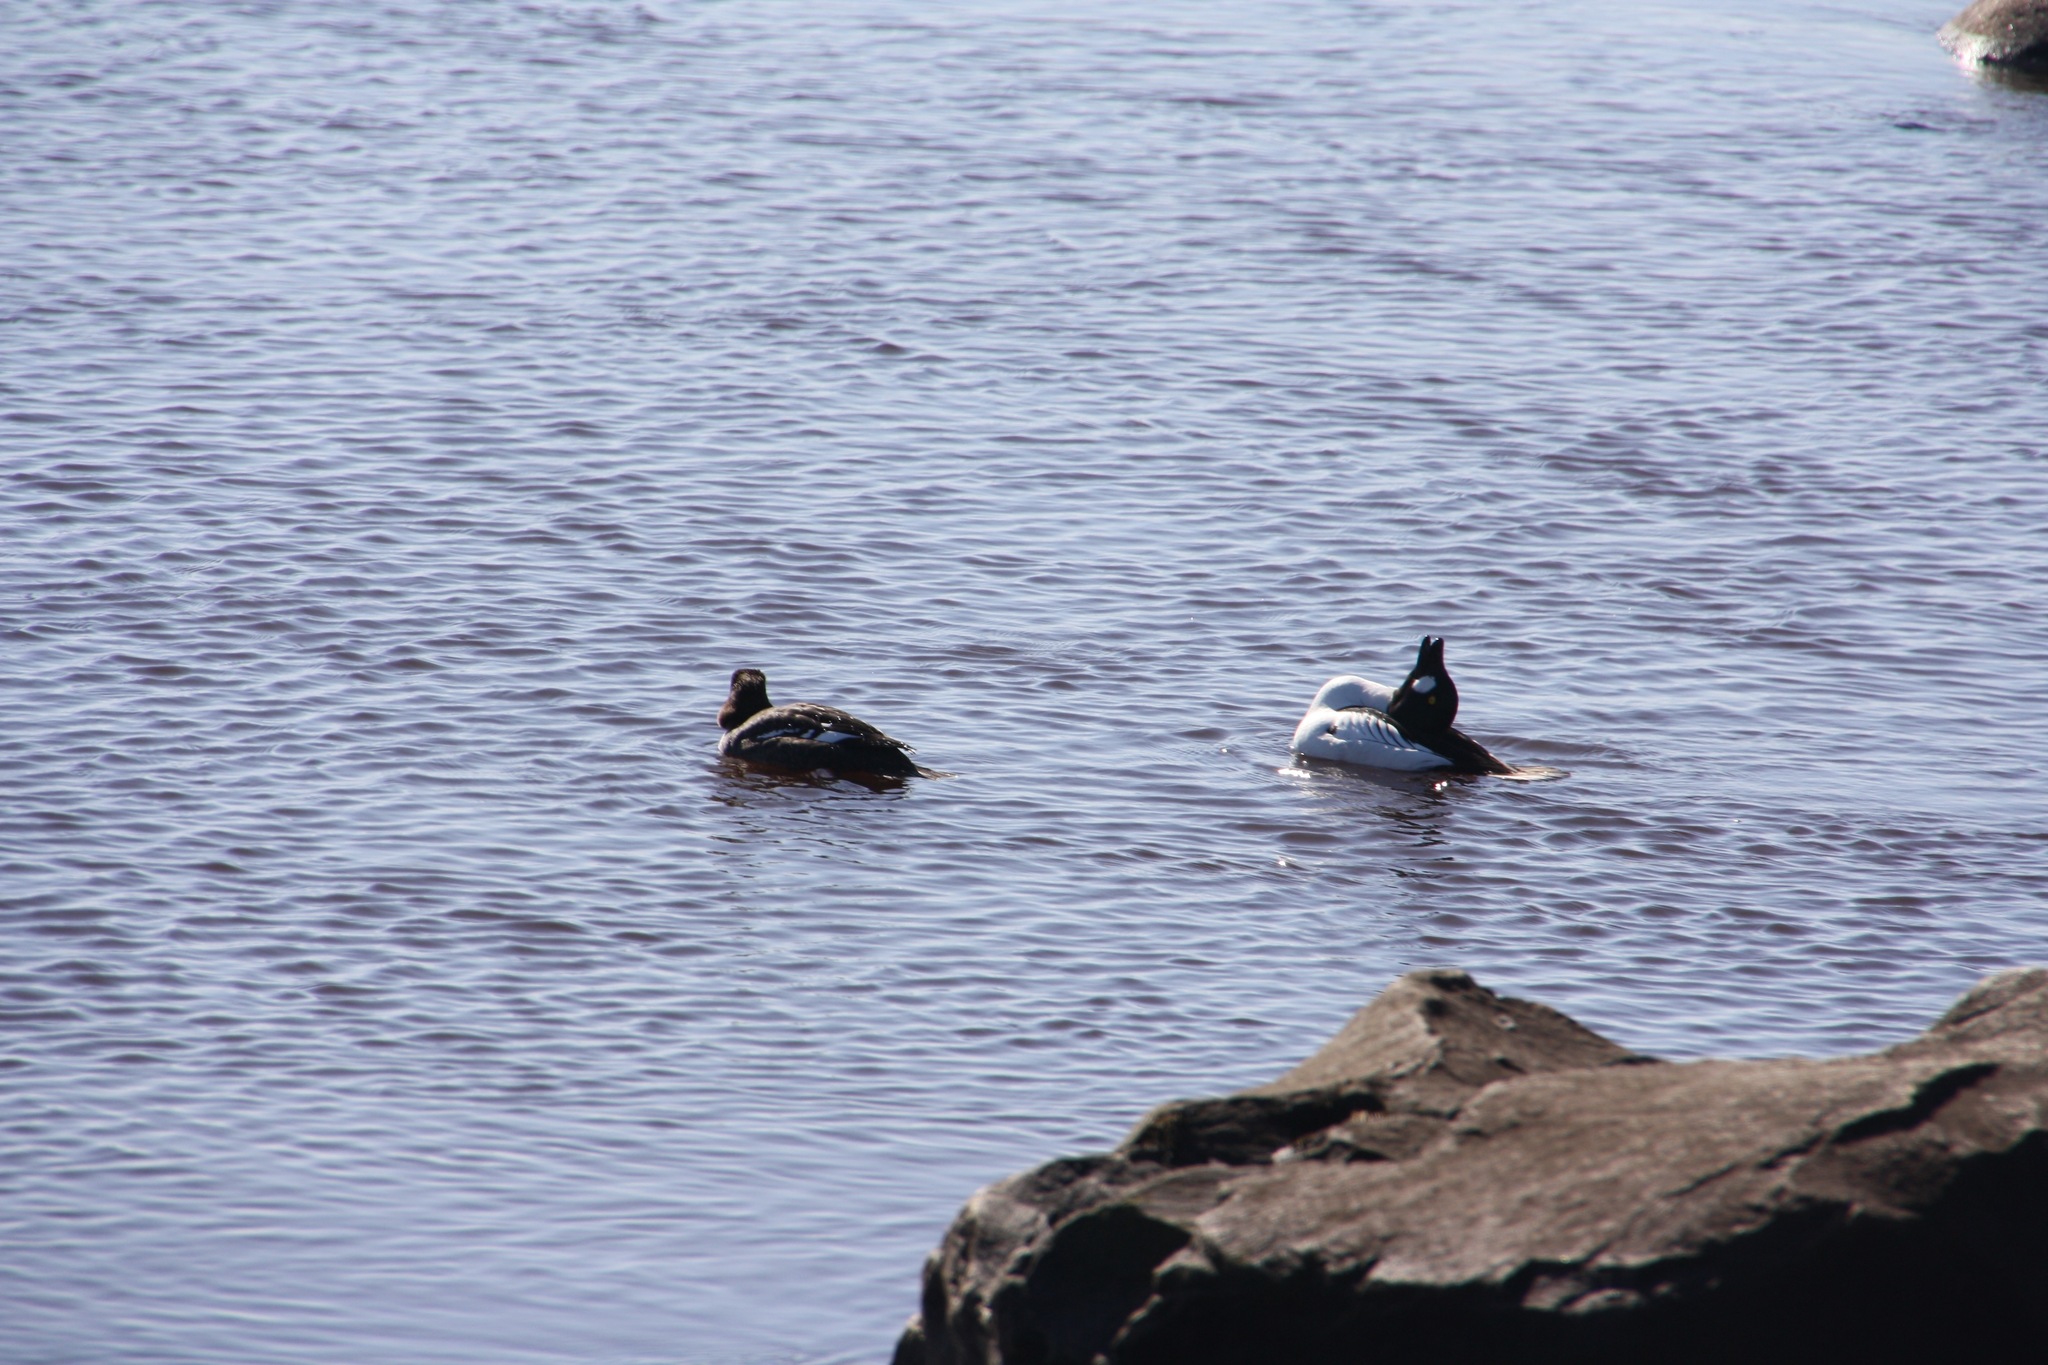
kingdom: Animalia
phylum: Chordata
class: Aves
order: Anseriformes
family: Anatidae
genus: Bucephala
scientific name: Bucephala clangula
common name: Common goldeneye
